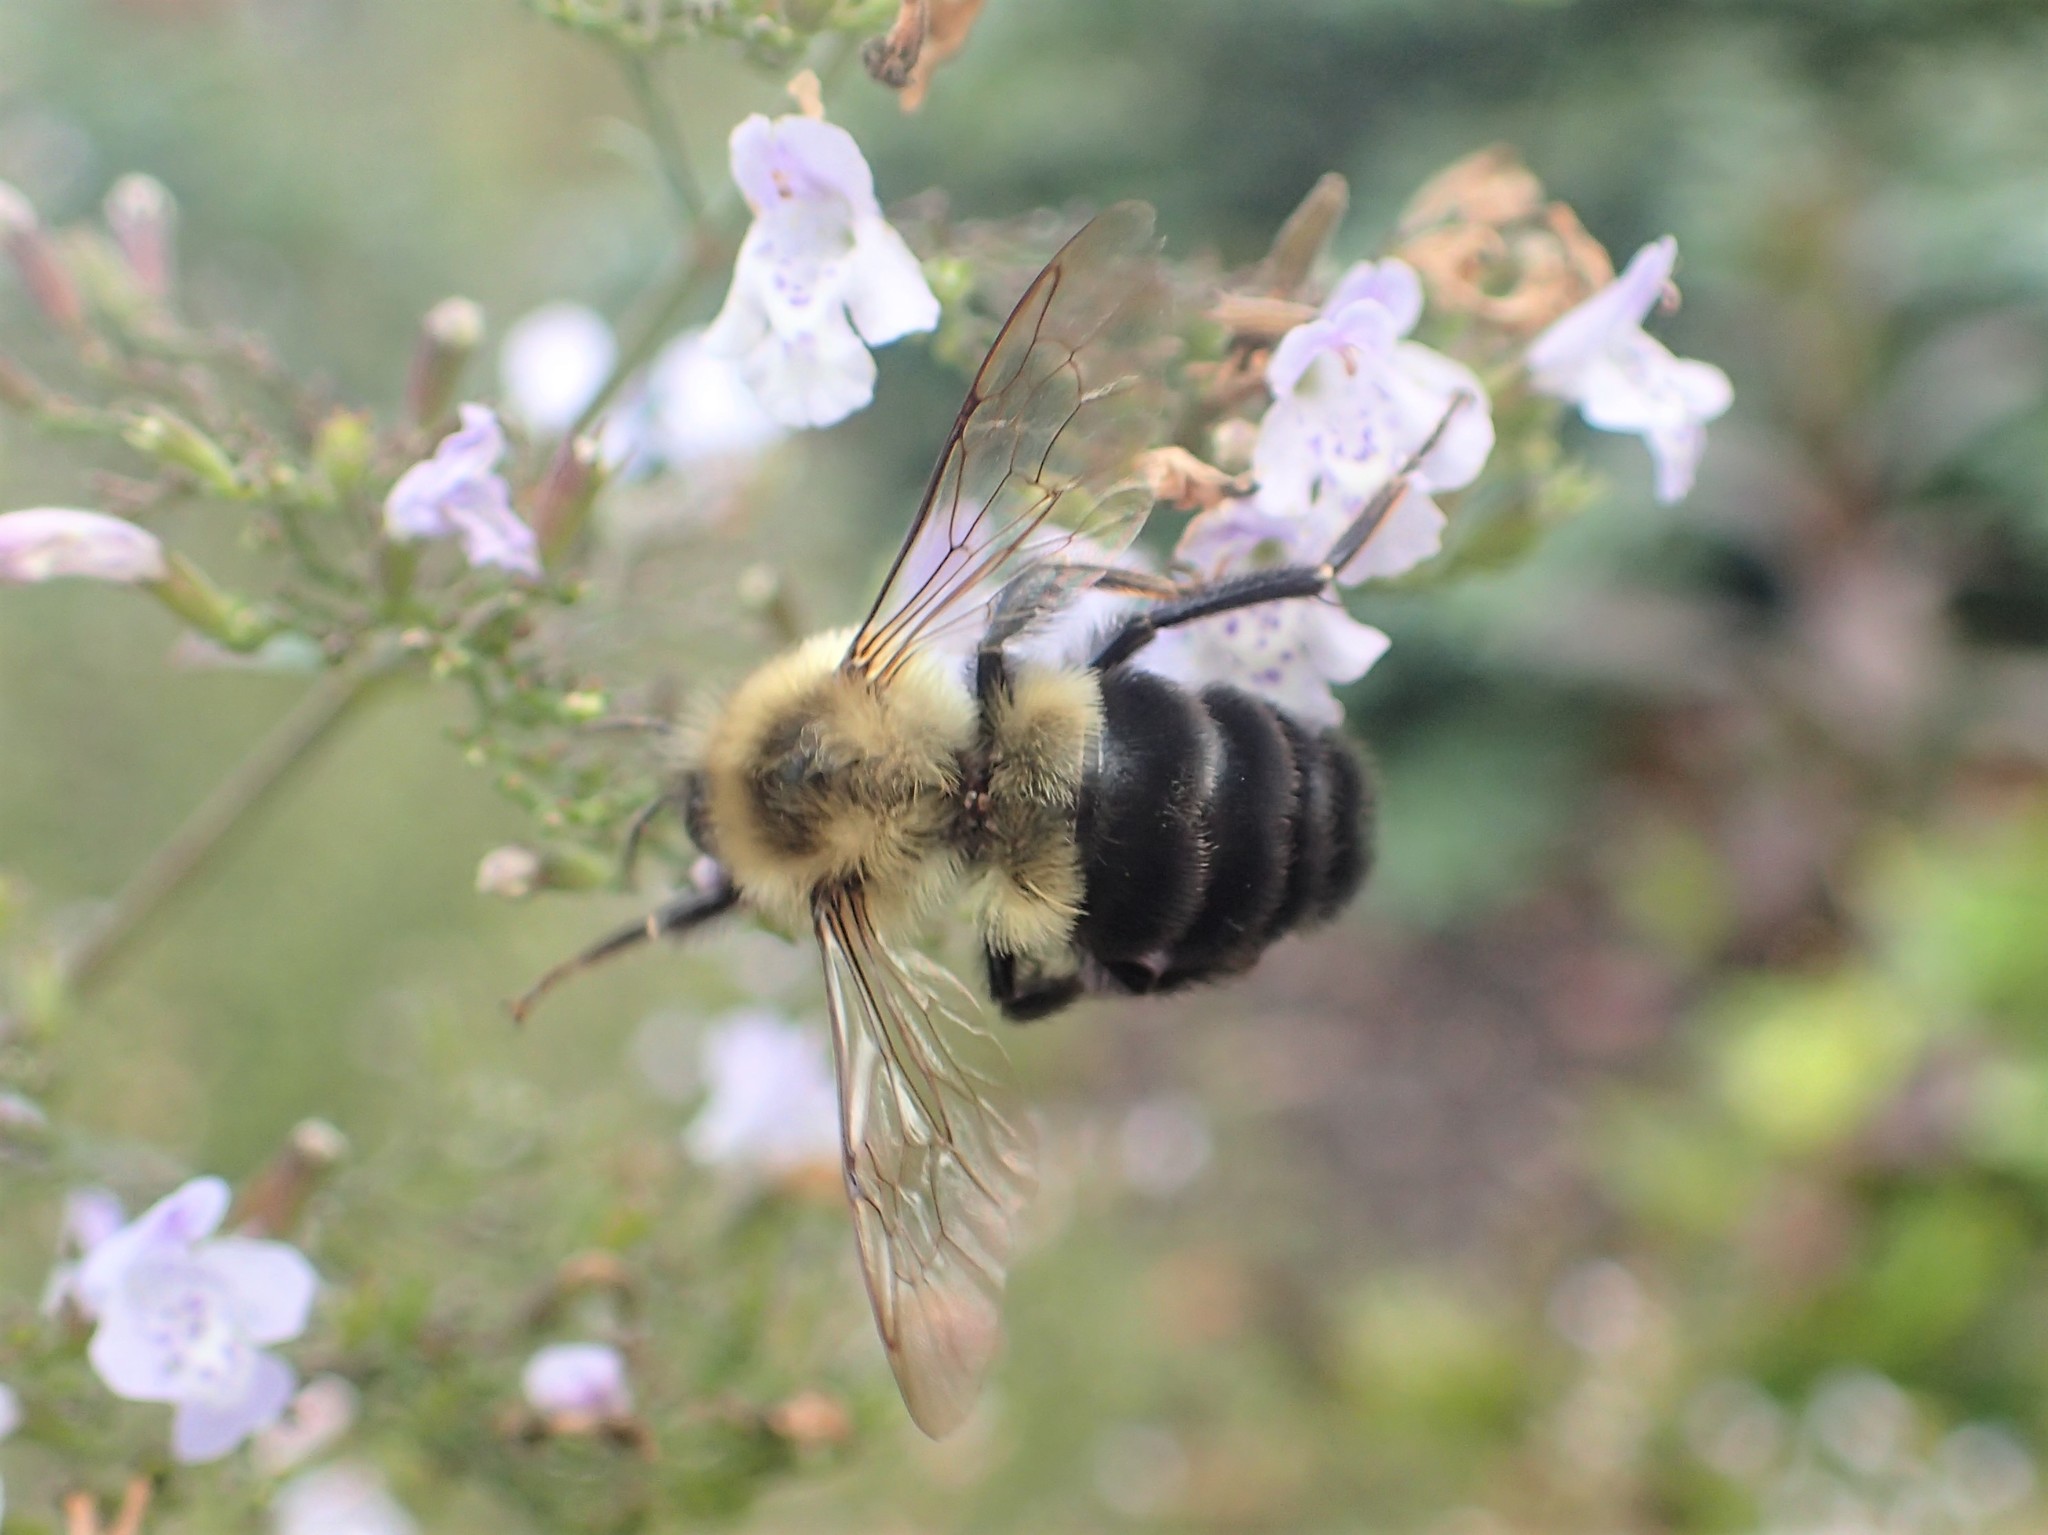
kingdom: Animalia
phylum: Arthropoda
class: Insecta
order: Hymenoptera
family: Apidae
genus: Bombus
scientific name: Bombus impatiens
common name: Common eastern bumble bee
